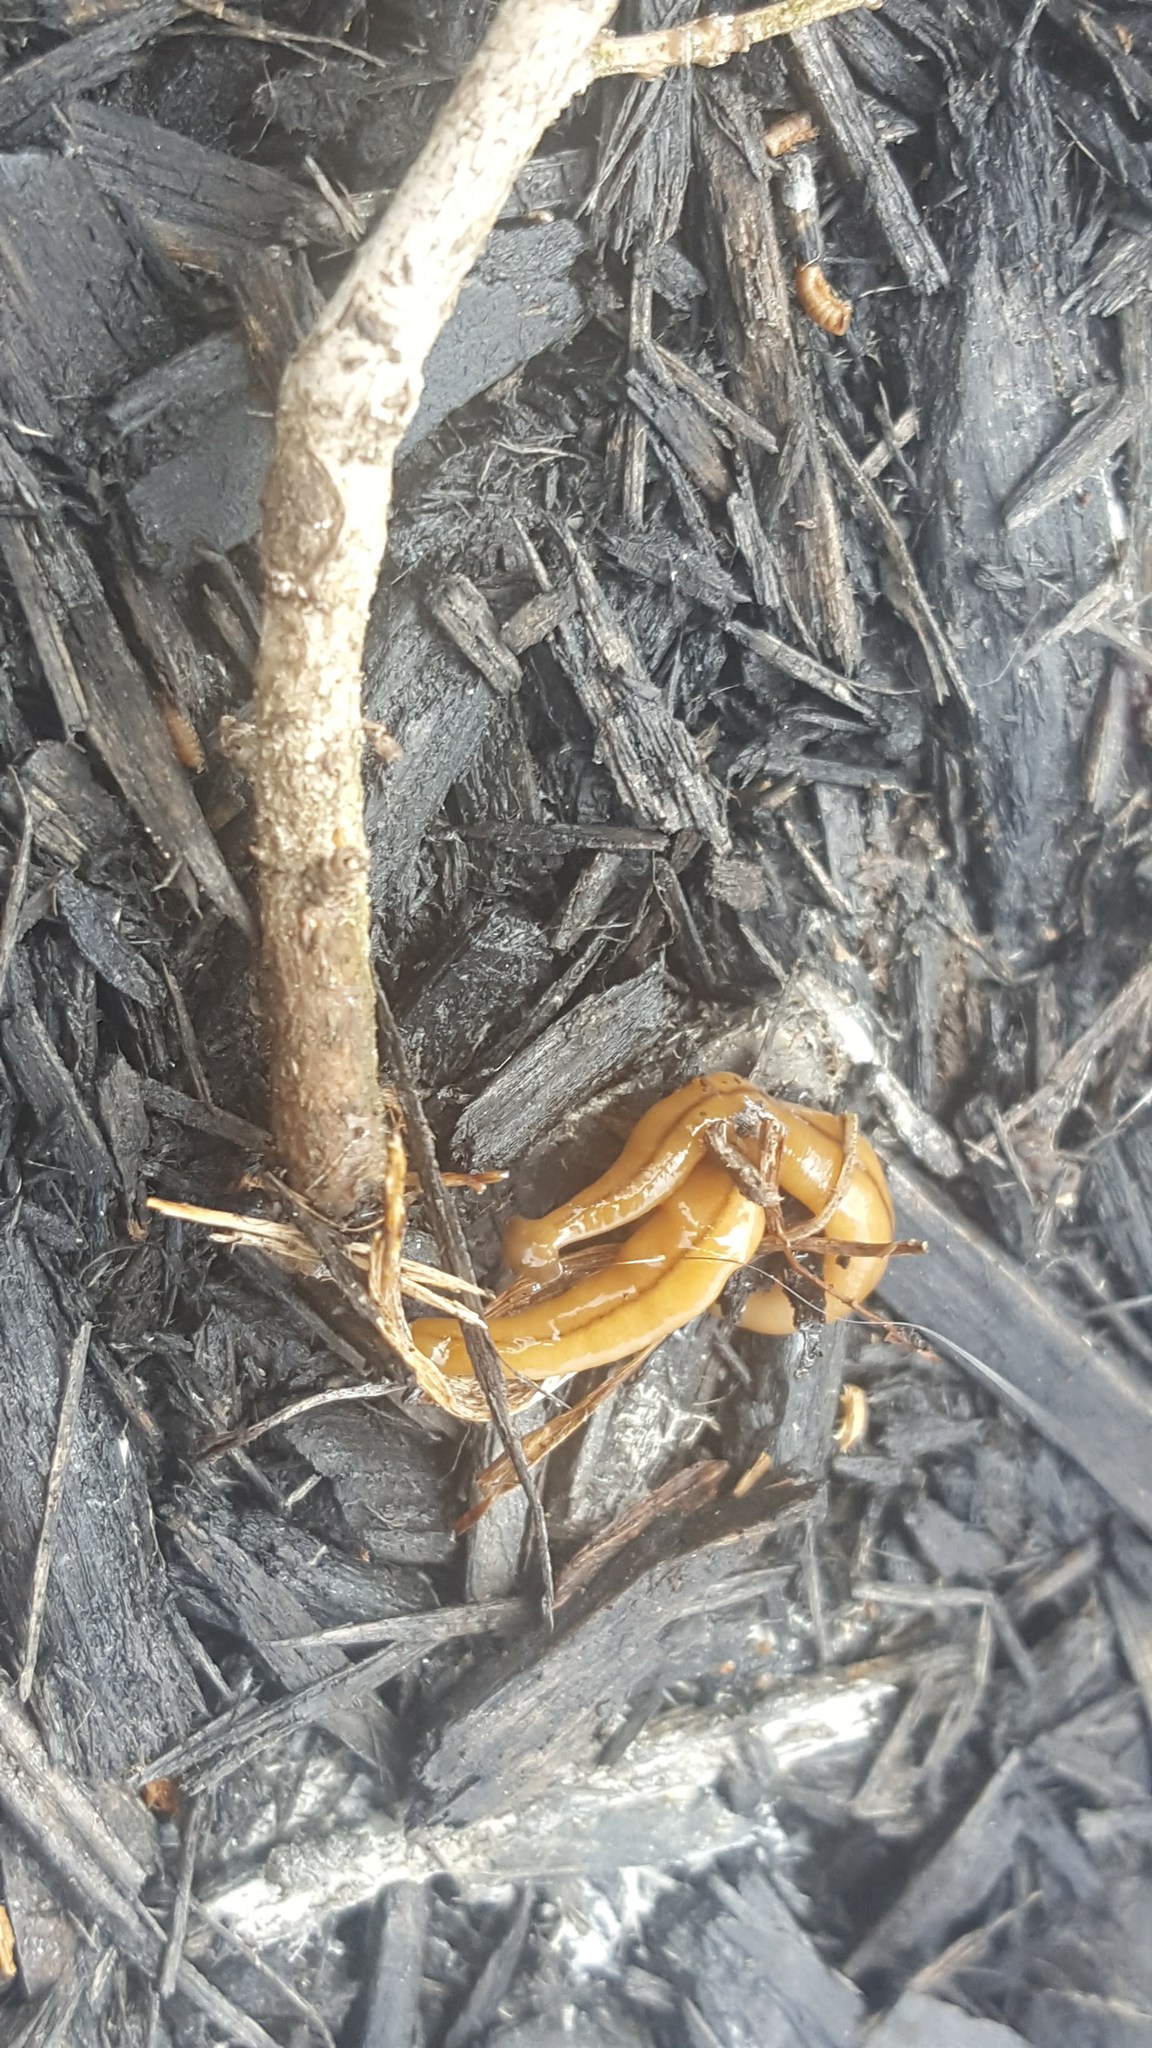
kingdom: Animalia
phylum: Platyhelminthes
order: Tricladida
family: Geoplanidae
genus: Bipalium
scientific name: Bipalium adventitium
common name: Land planarian
